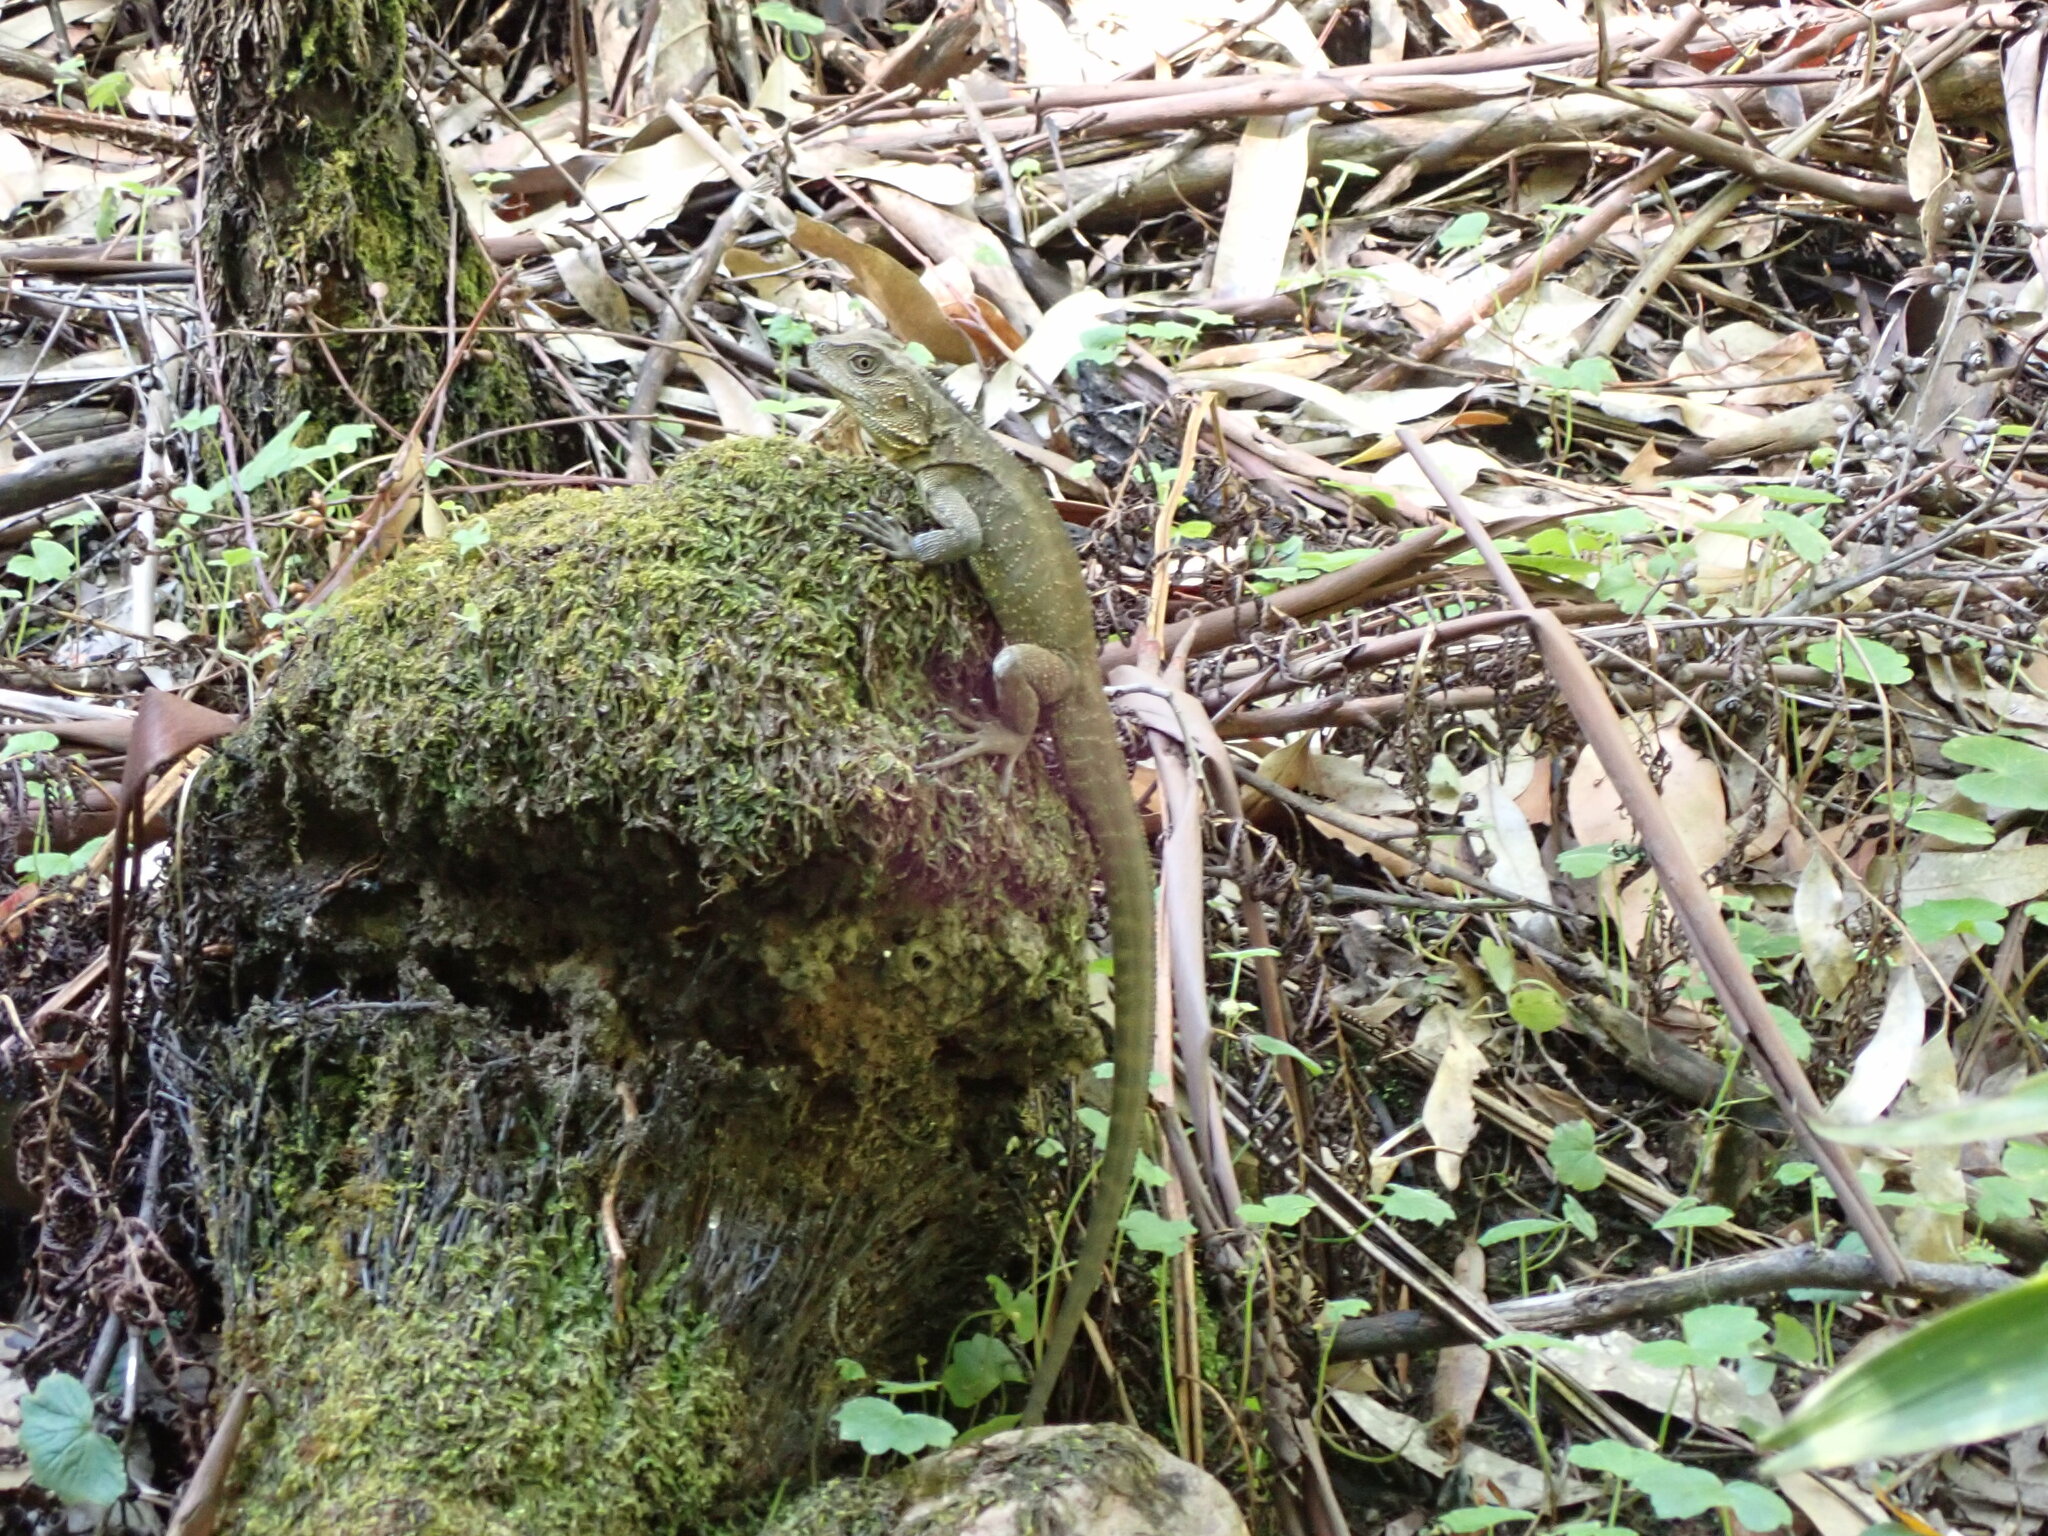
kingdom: Animalia
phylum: Chordata
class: Squamata
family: Agamidae
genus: Intellagama
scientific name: Intellagama lesueurii
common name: Eastern water dragon
